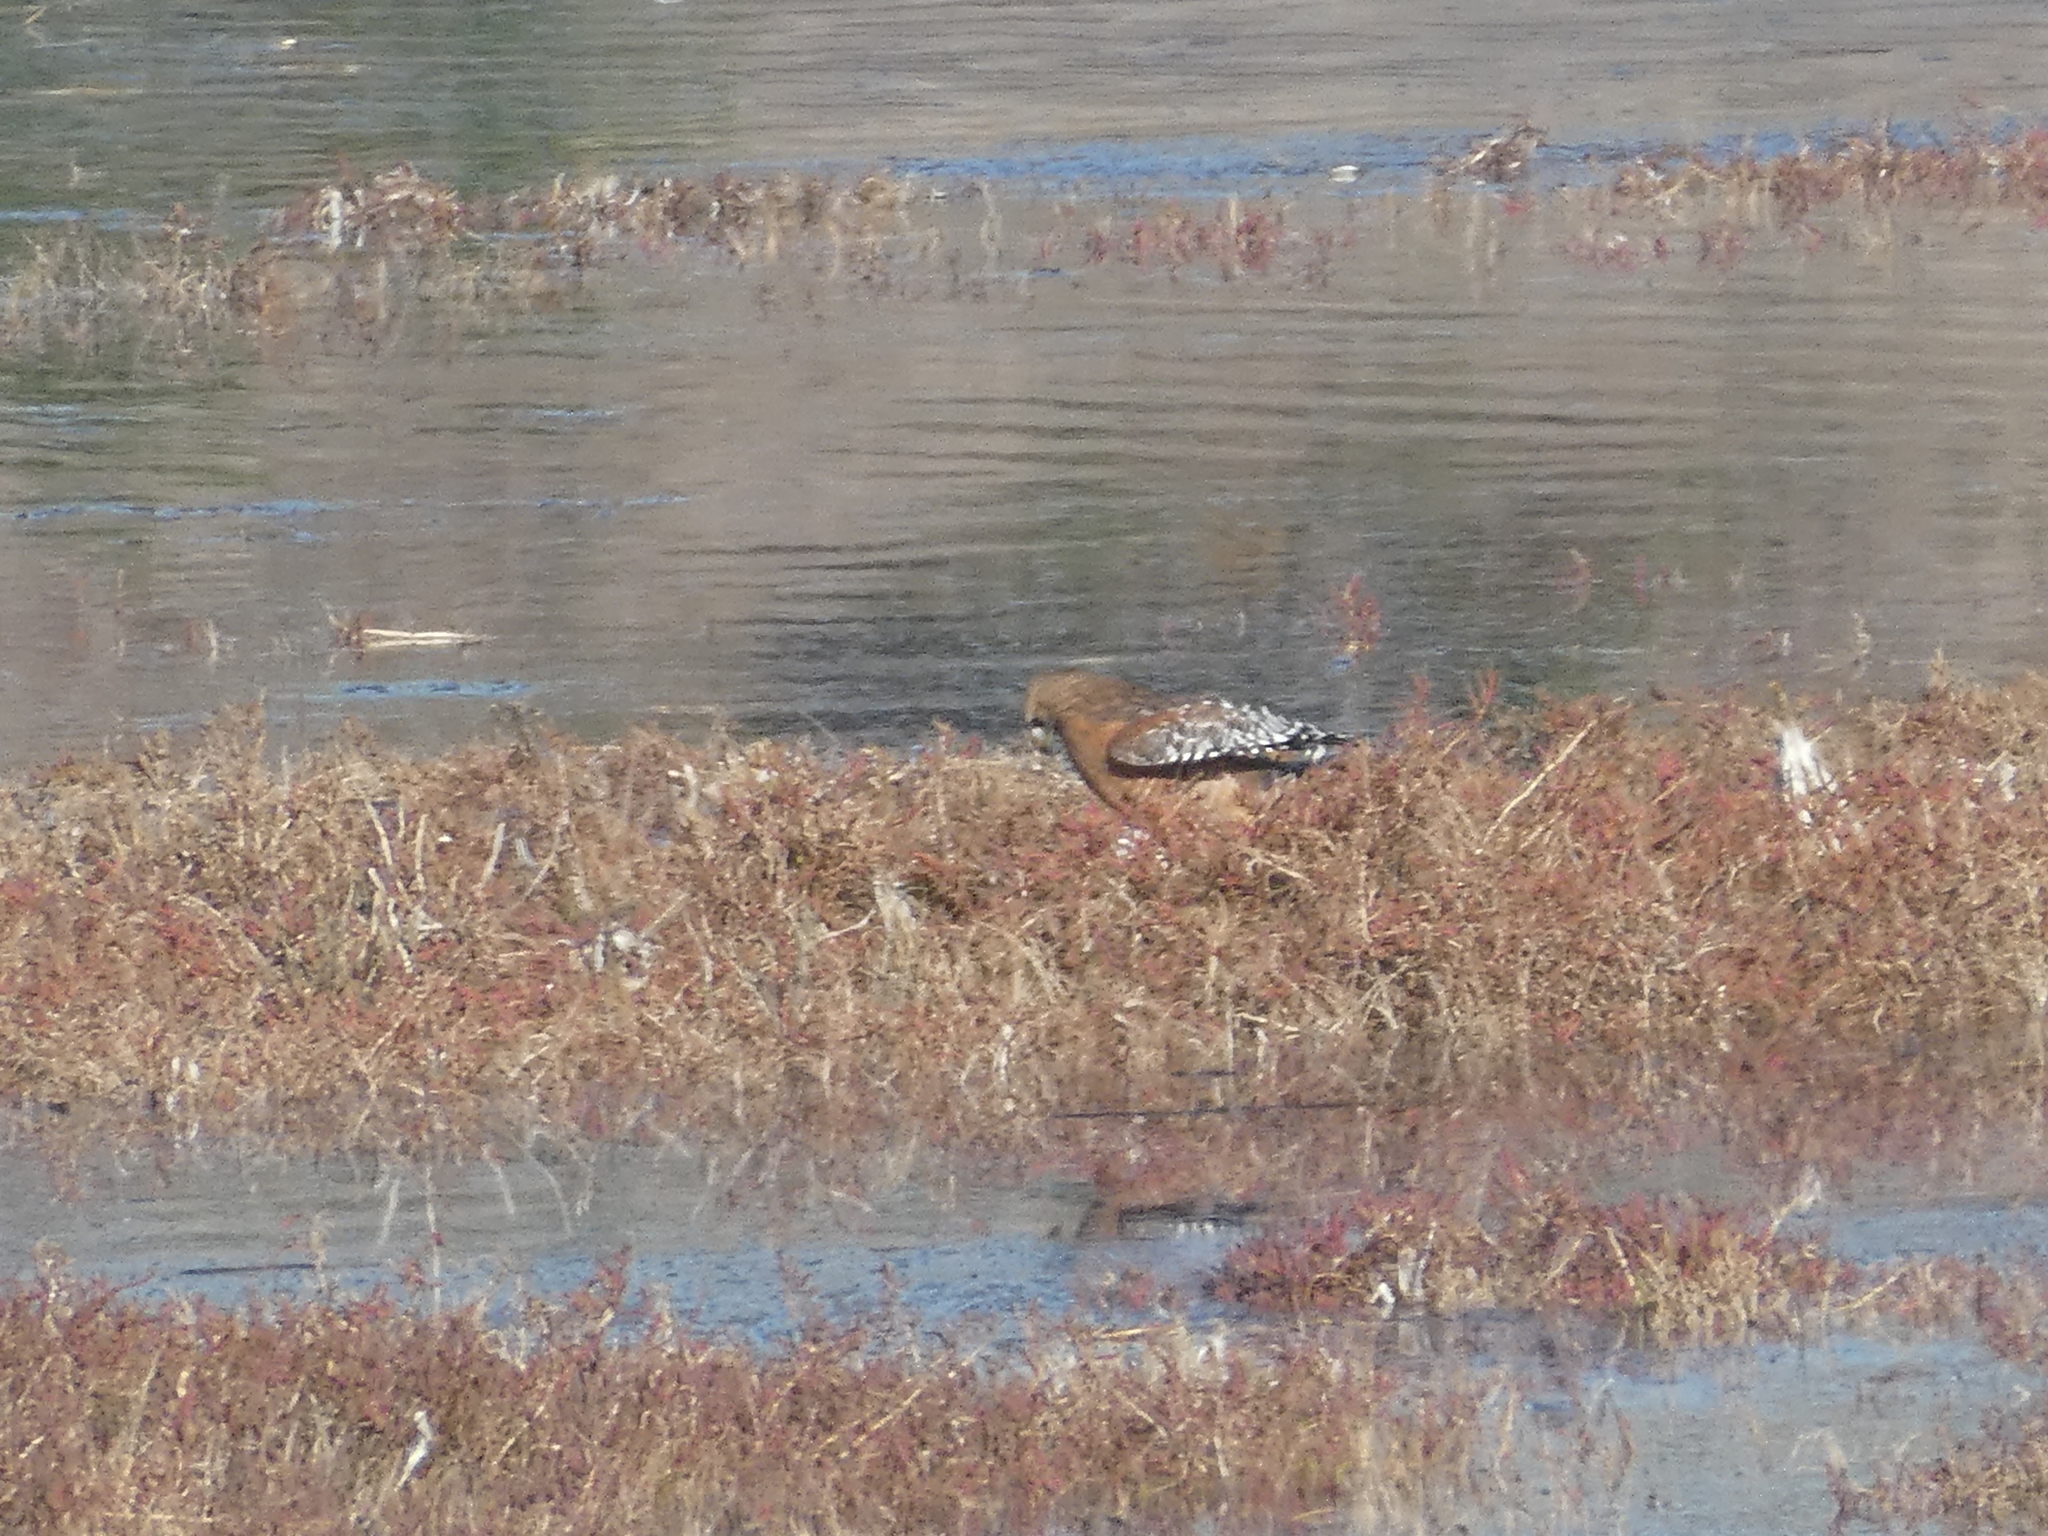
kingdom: Animalia
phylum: Chordata
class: Aves
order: Accipitriformes
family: Accipitridae
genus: Buteo
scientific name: Buteo lineatus
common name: Red-shouldered hawk
